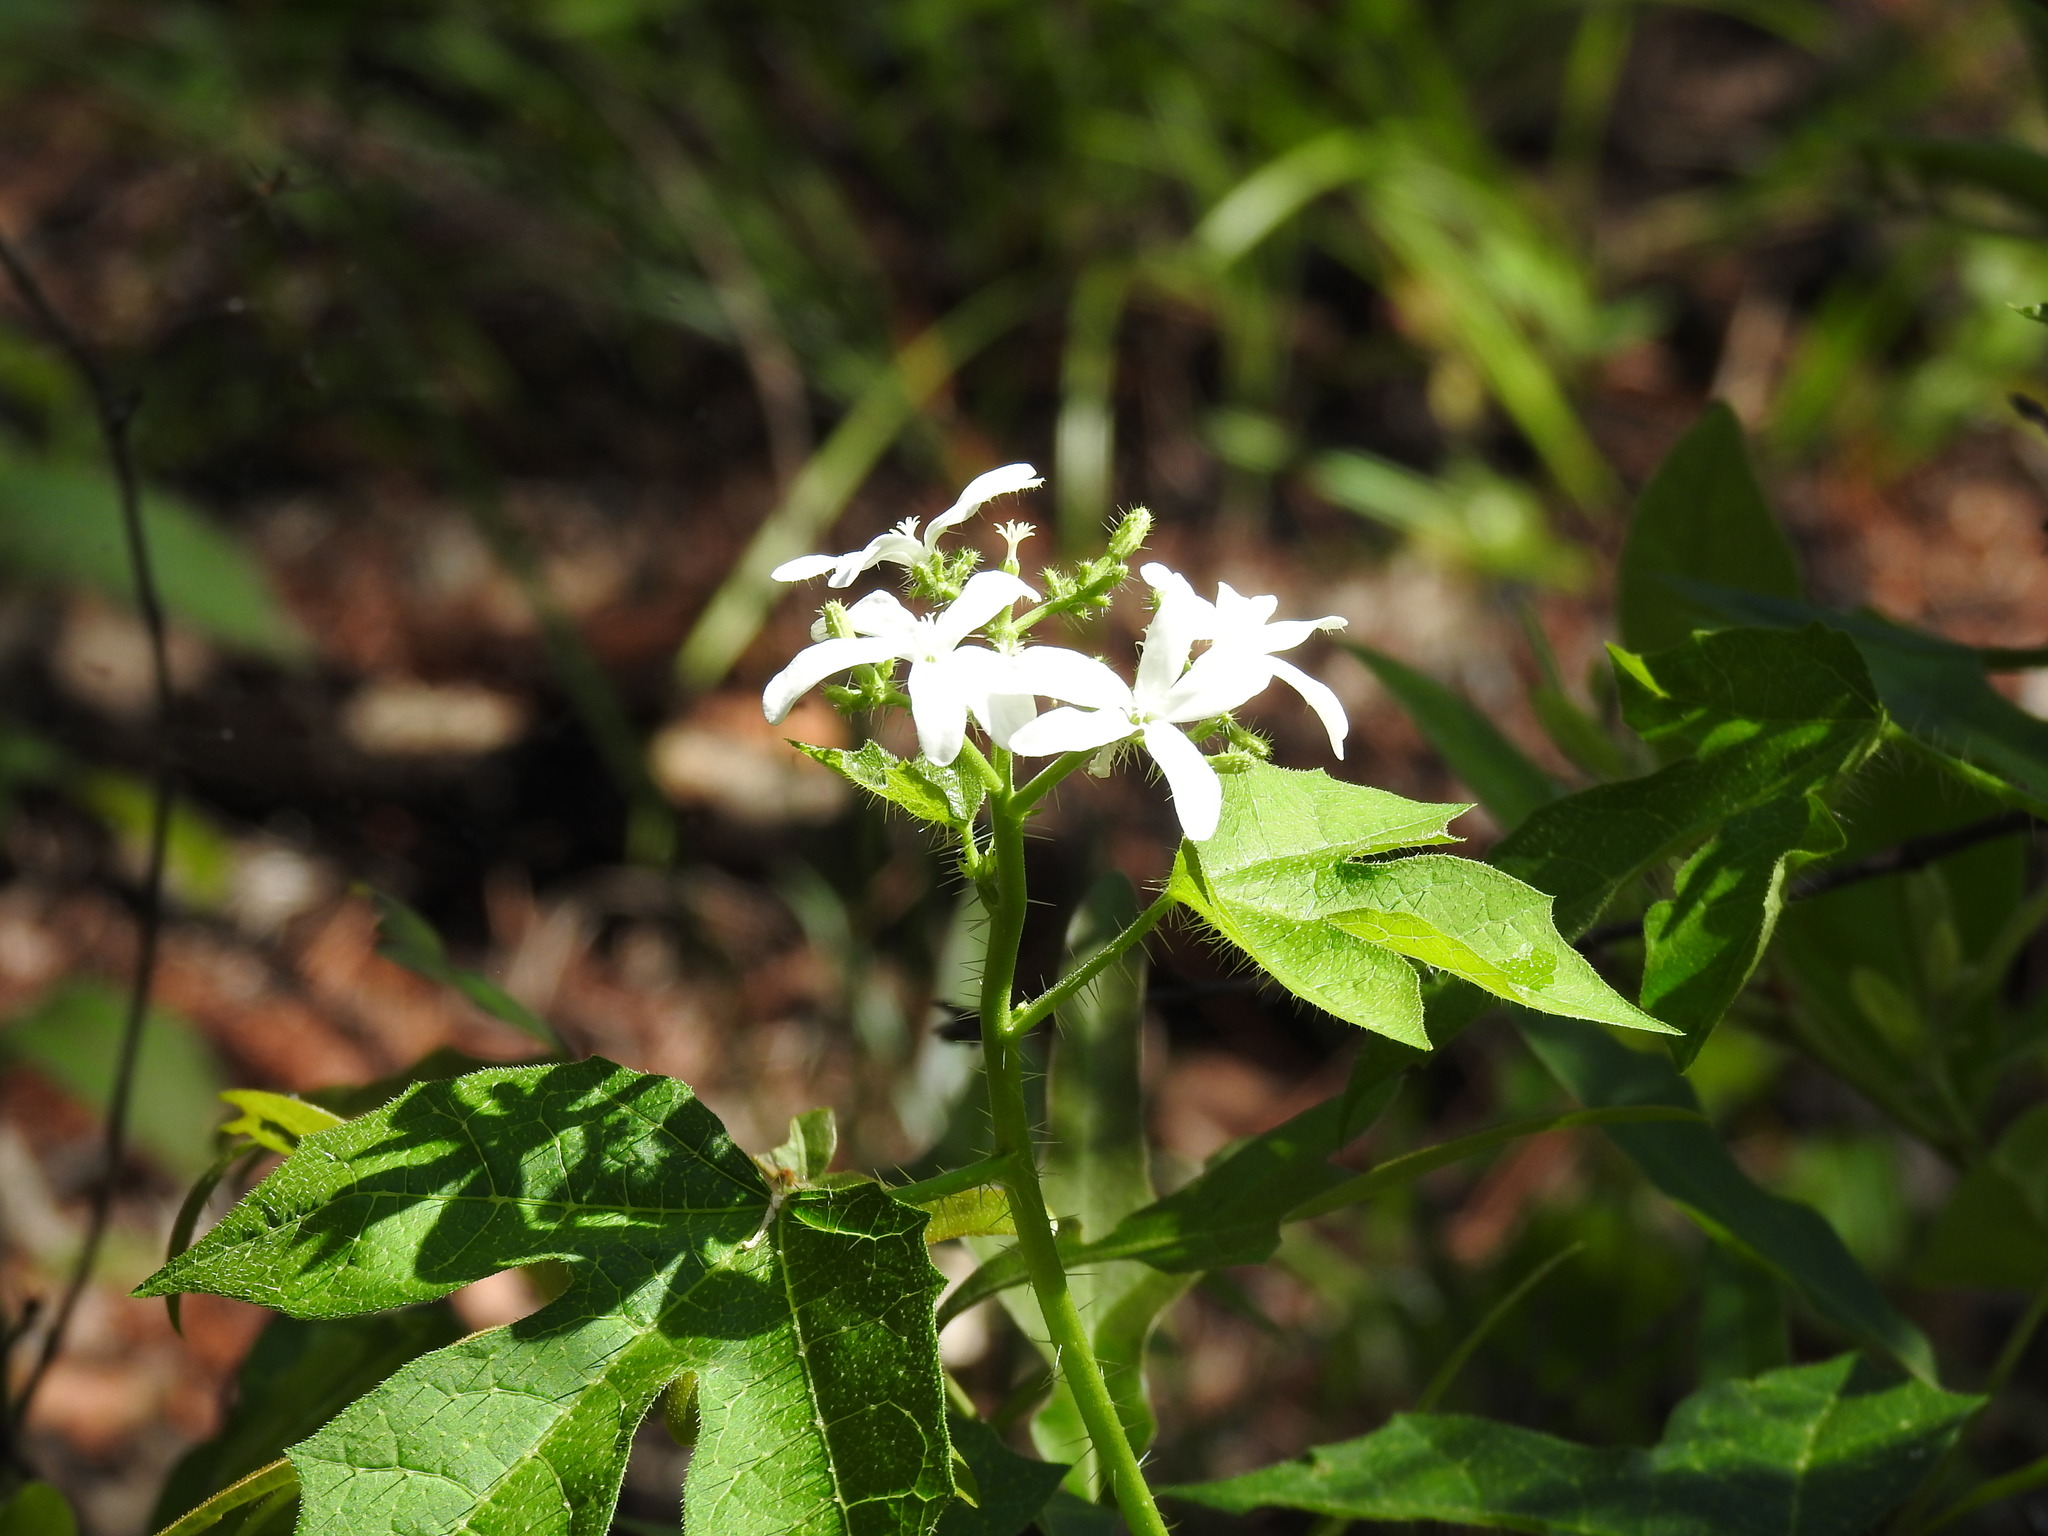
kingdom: Plantae
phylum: Tracheophyta
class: Magnoliopsida
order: Malpighiales
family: Euphorbiaceae
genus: Cnidoscolus
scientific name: Cnidoscolus stimulosus
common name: Bull-nettle
